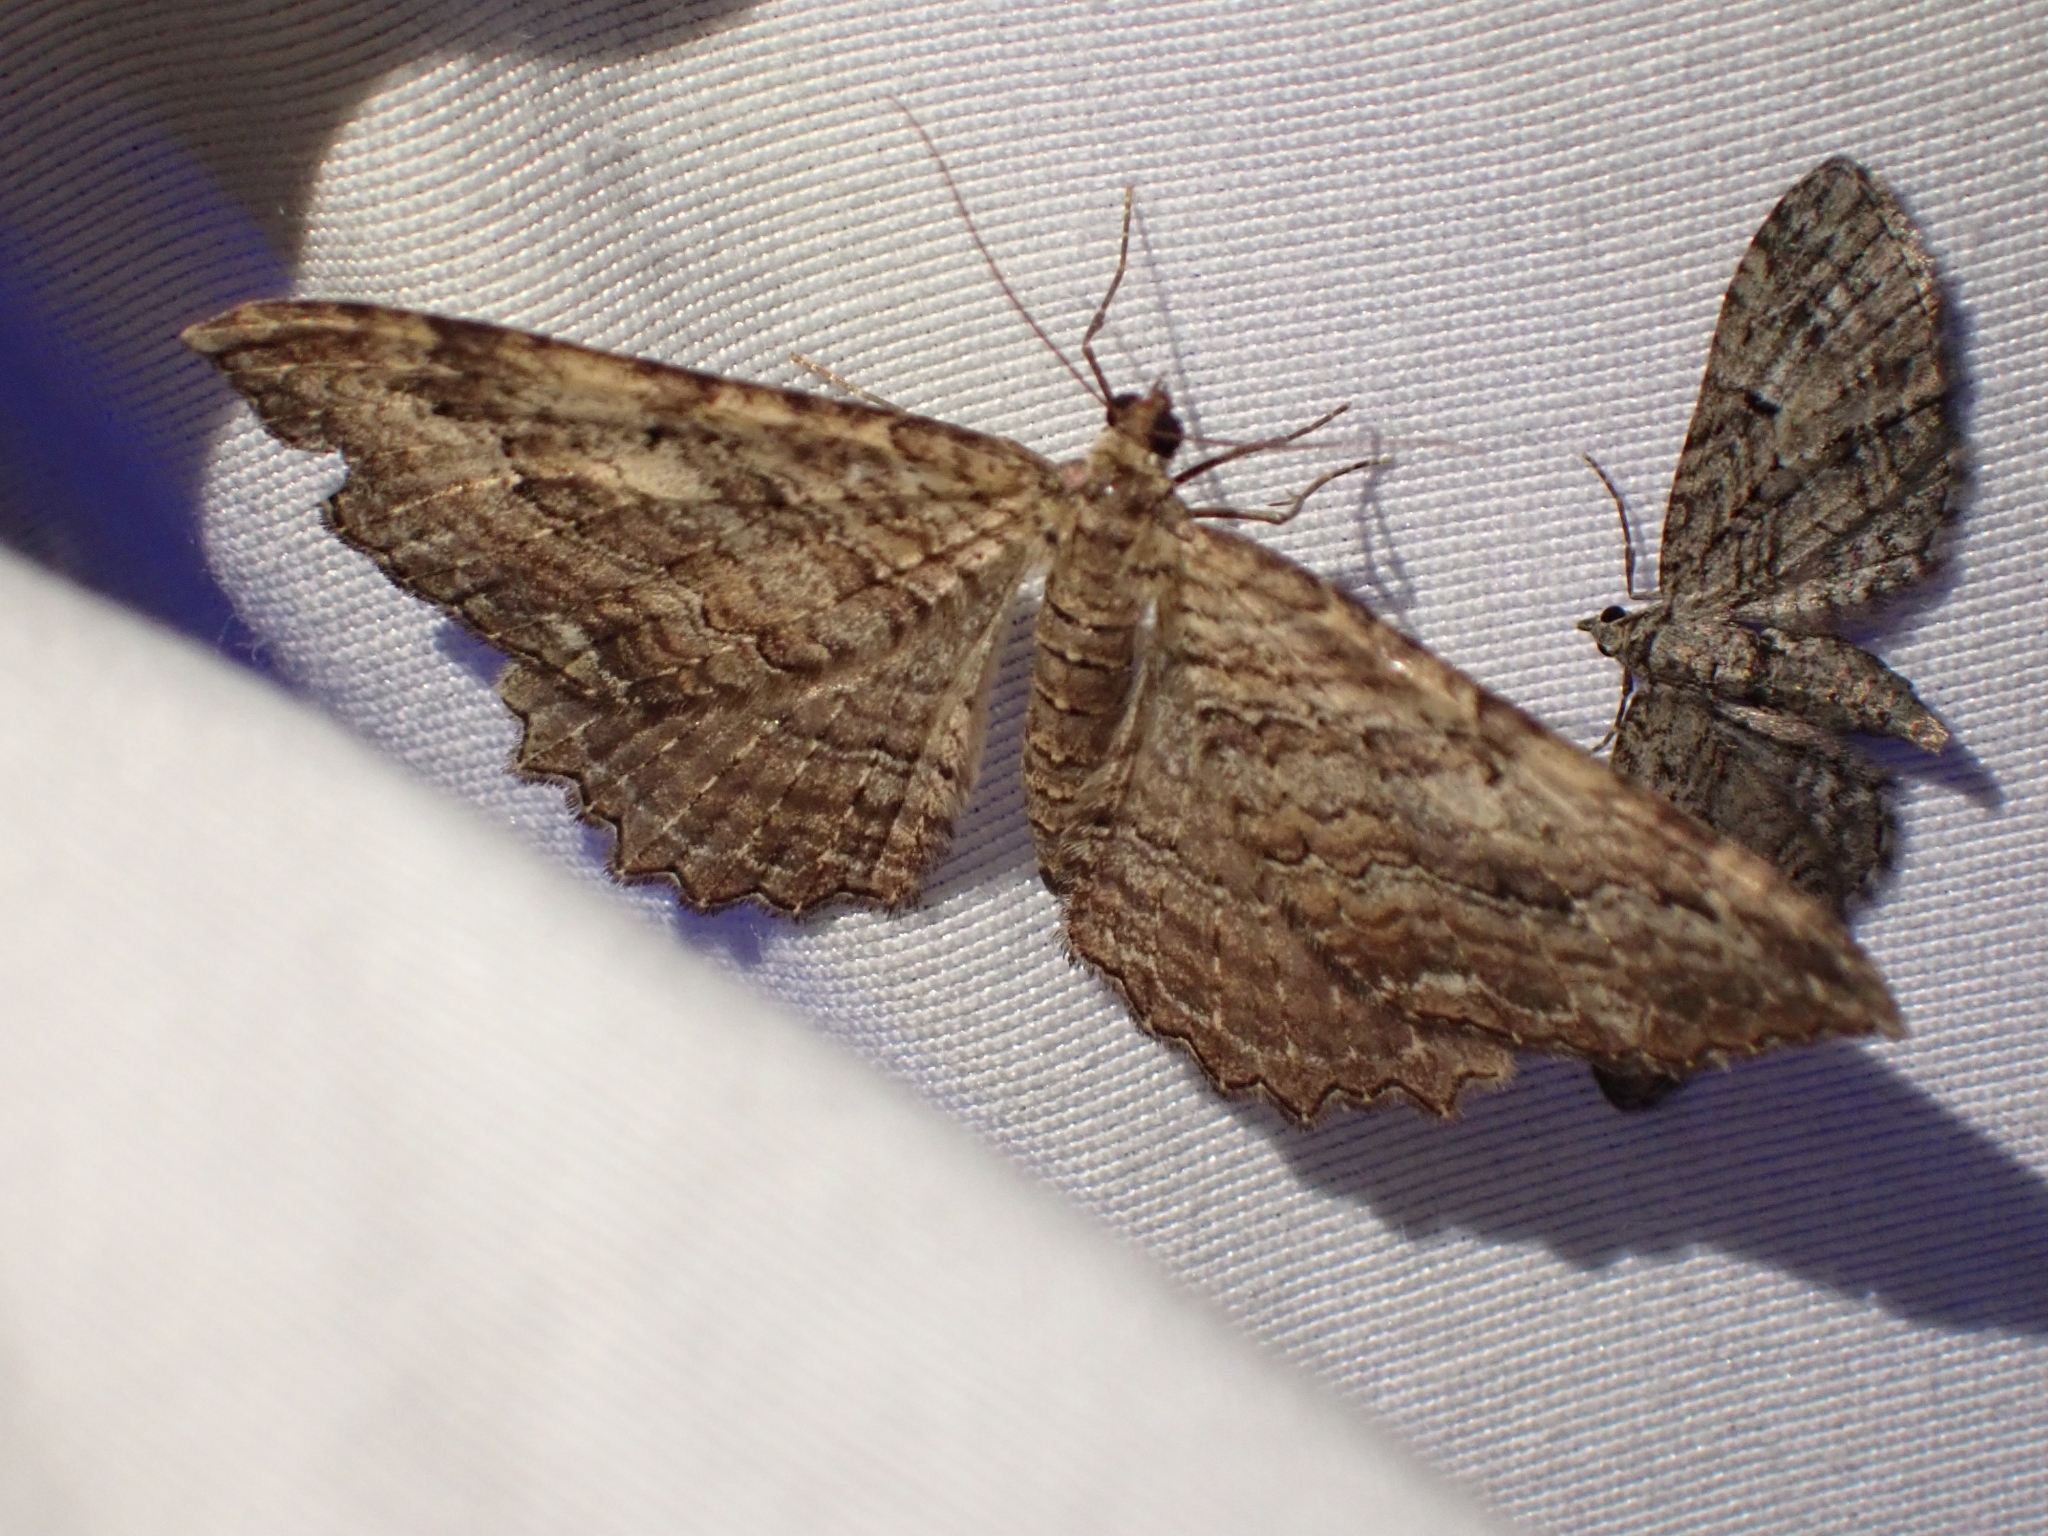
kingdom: Animalia
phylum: Arthropoda
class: Insecta
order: Lepidoptera
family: Geometridae
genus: Rheumaptera
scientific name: Rheumaptera
